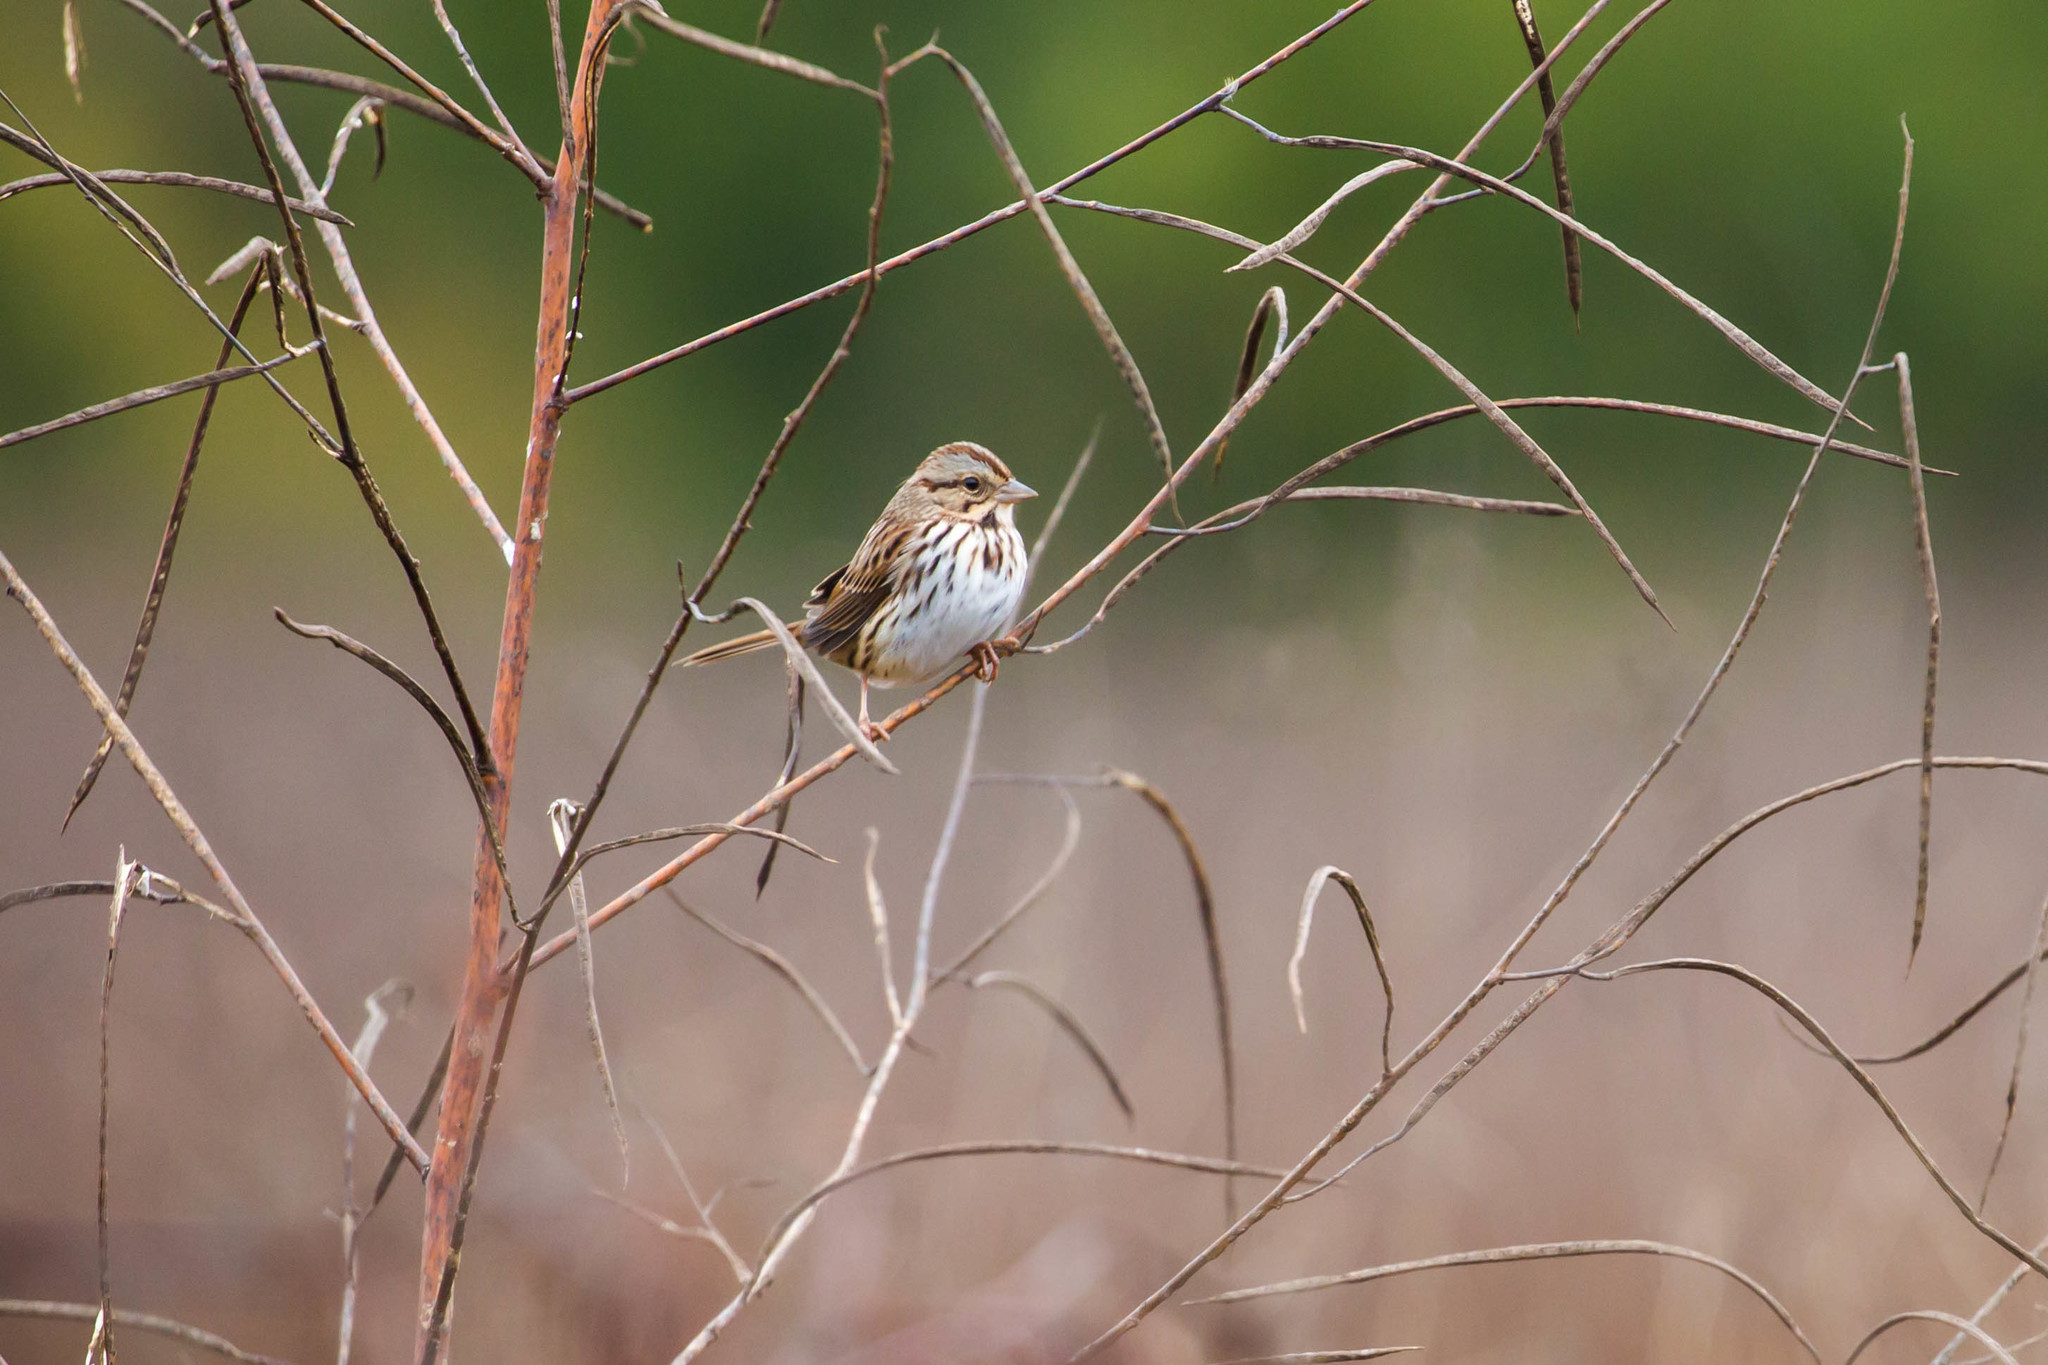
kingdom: Animalia
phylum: Chordata
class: Aves
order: Passeriformes
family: Passerellidae
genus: Melospiza
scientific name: Melospiza melodia
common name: Song sparrow
